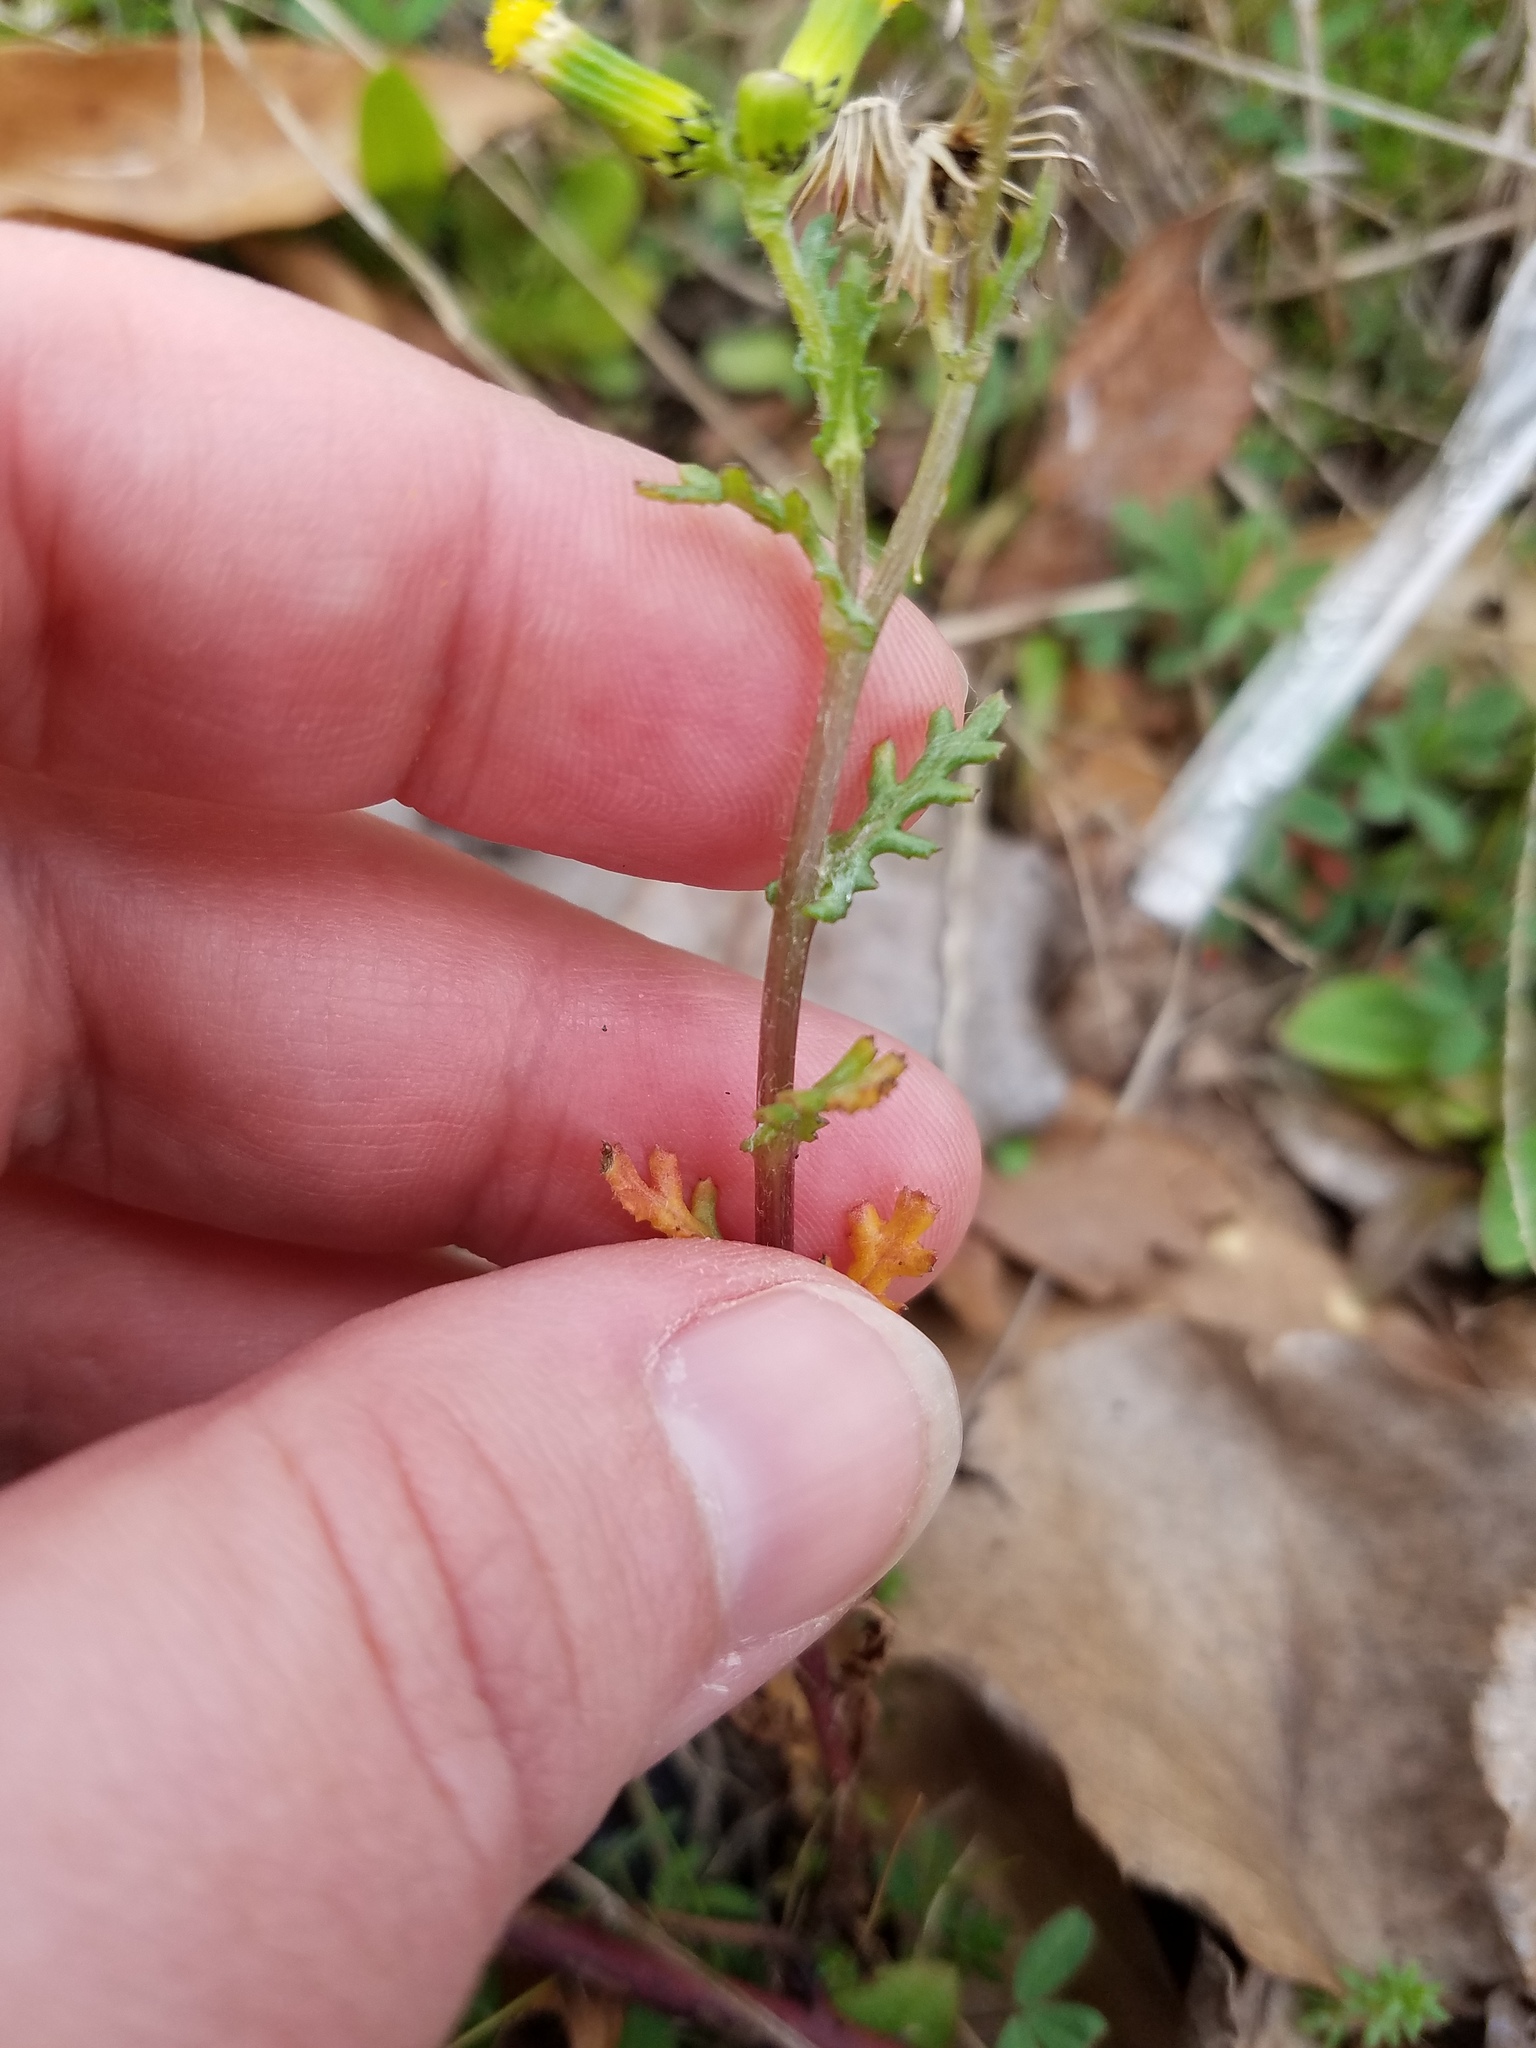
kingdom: Plantae
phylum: Tracheophyta
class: Magnoliopsida
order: Asterales
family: Asteraceae
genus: Senecio
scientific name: Senecio vulgaris
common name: Old-man-in-the-spring
